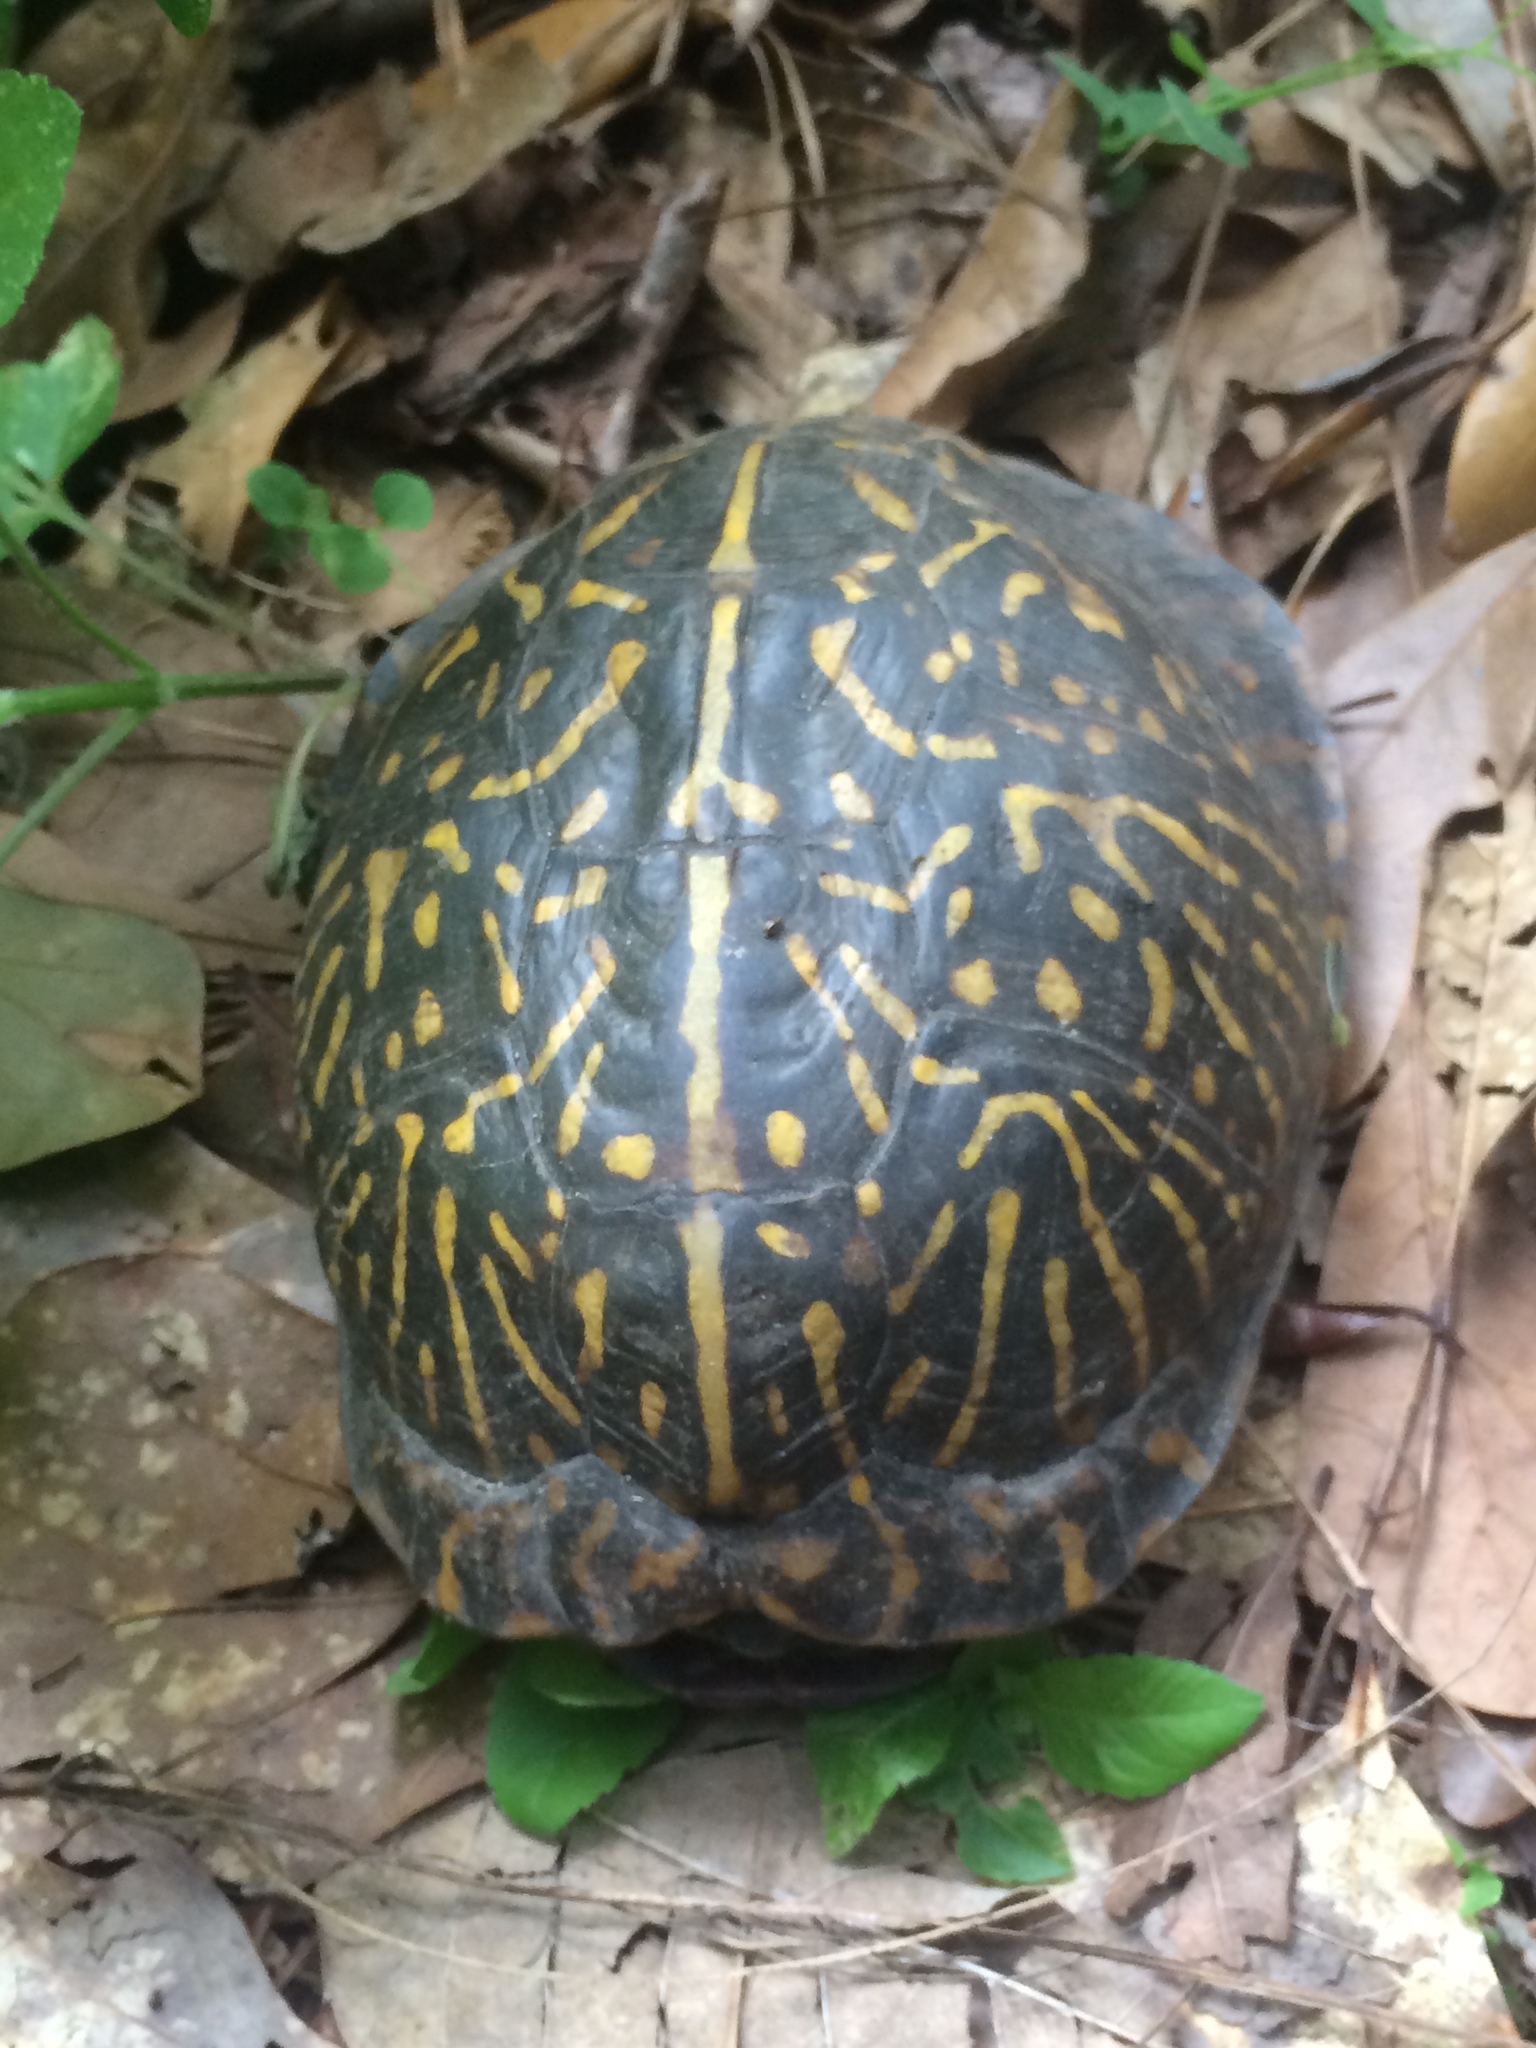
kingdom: Animalia
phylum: Chordata
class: Testudines
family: Emydidae
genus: Terrapene
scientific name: Terrapene carolina
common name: Common box turtle
